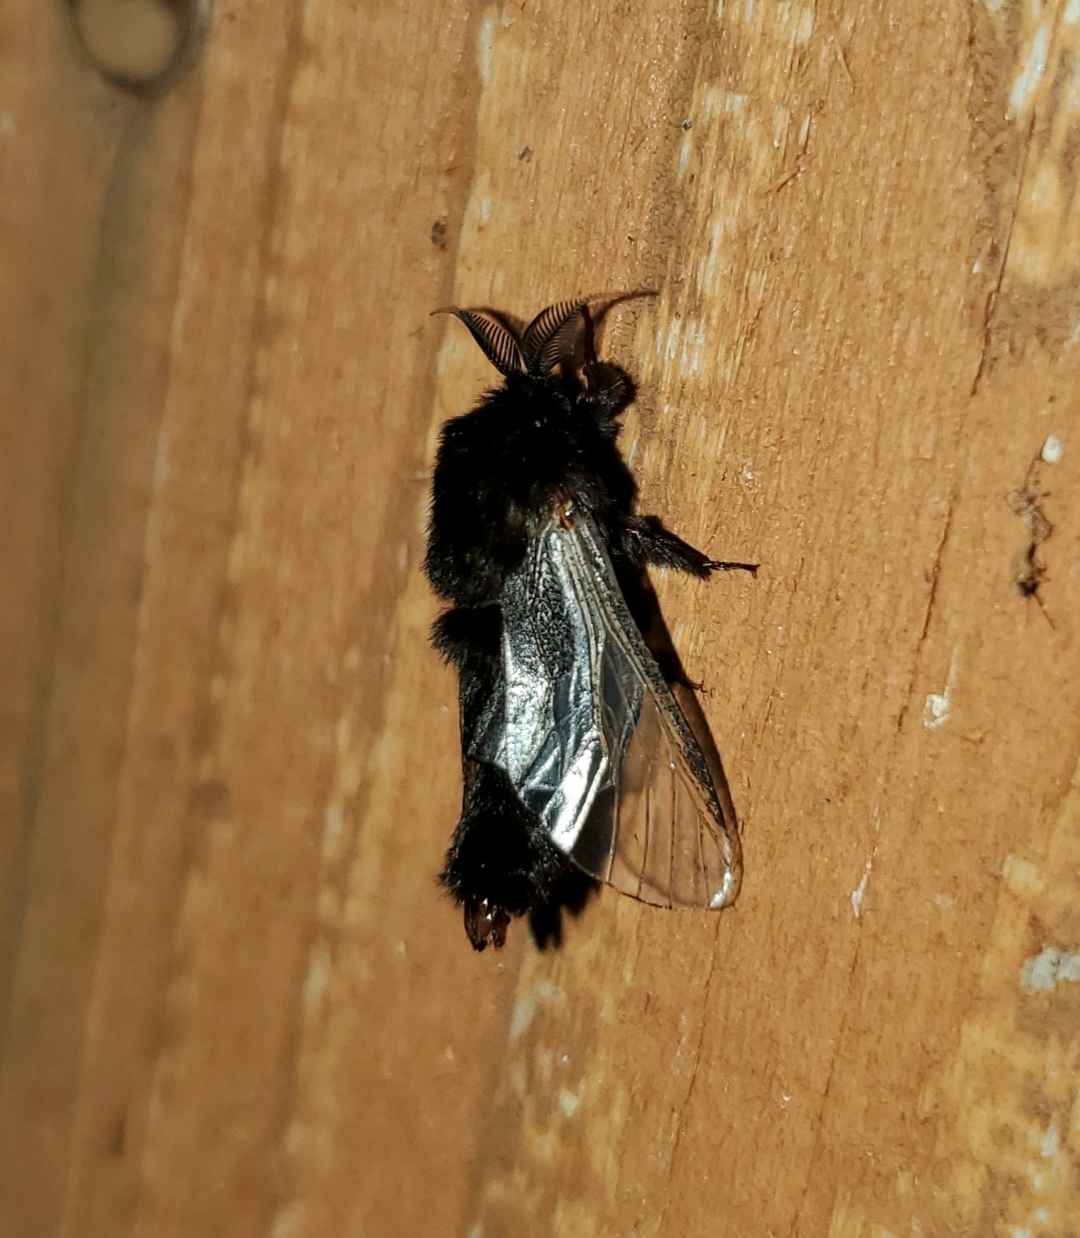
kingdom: Animalia
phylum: Arthropoda
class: Insecta
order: Lepidoptera
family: Psychidae
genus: Thyridopteryx
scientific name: Thyridopteryx ephemeraeformis
